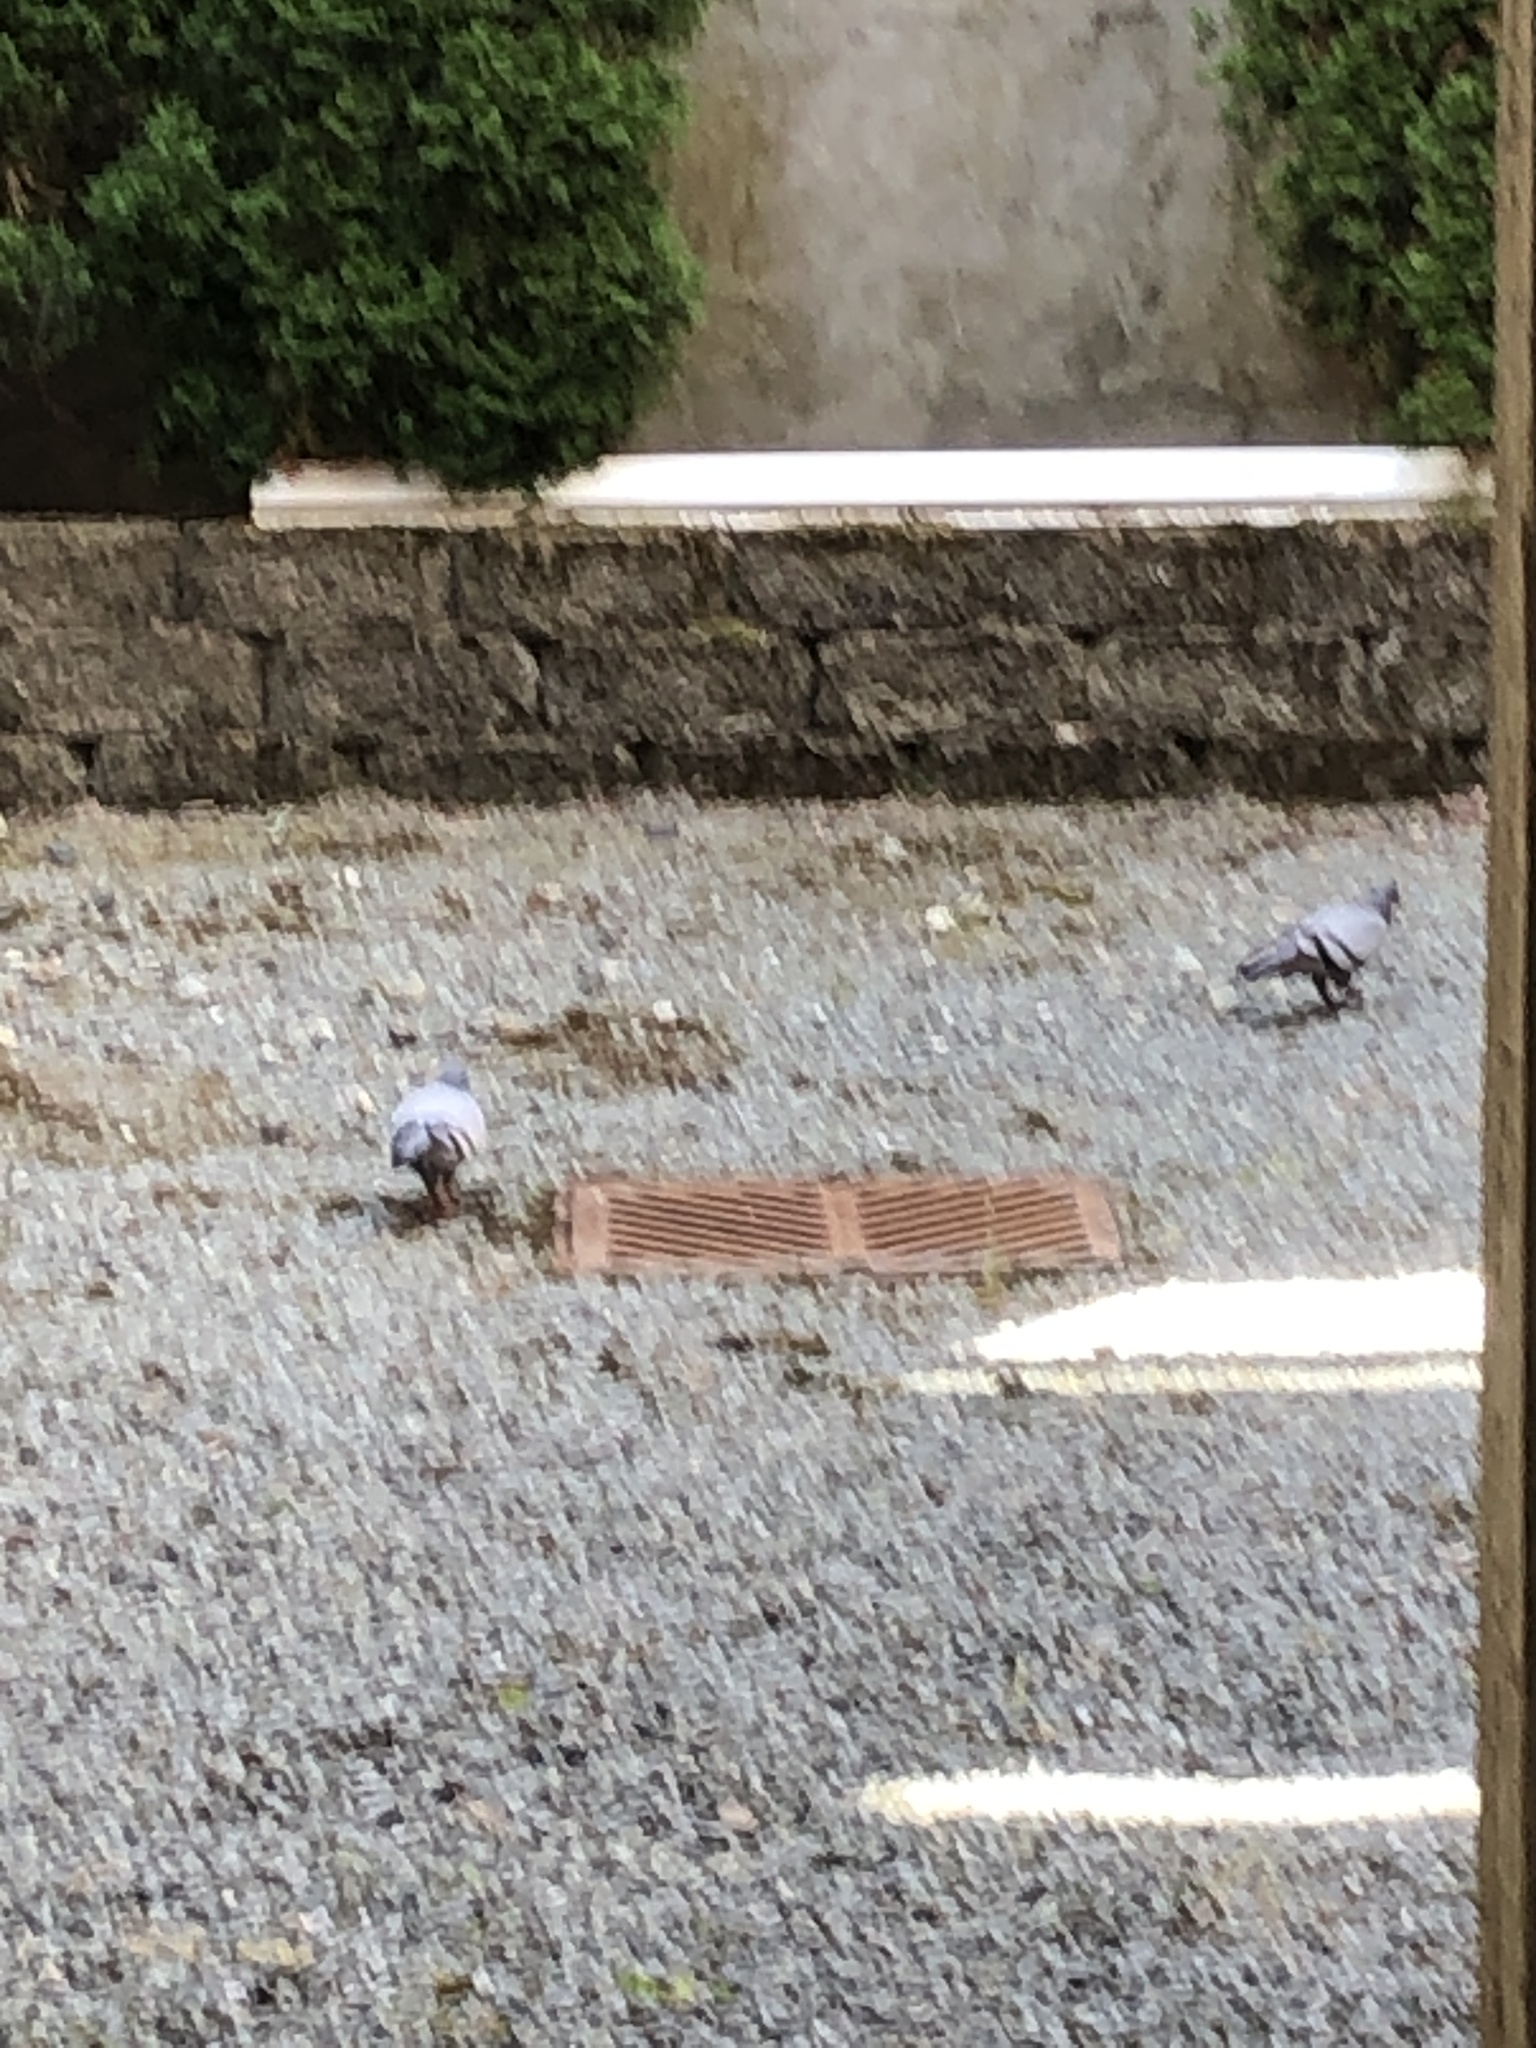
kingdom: Animalia
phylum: Chordata
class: Aves
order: Columbiformes
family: Columbidae
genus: Columba
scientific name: Columba livia
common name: Rock pigeon
